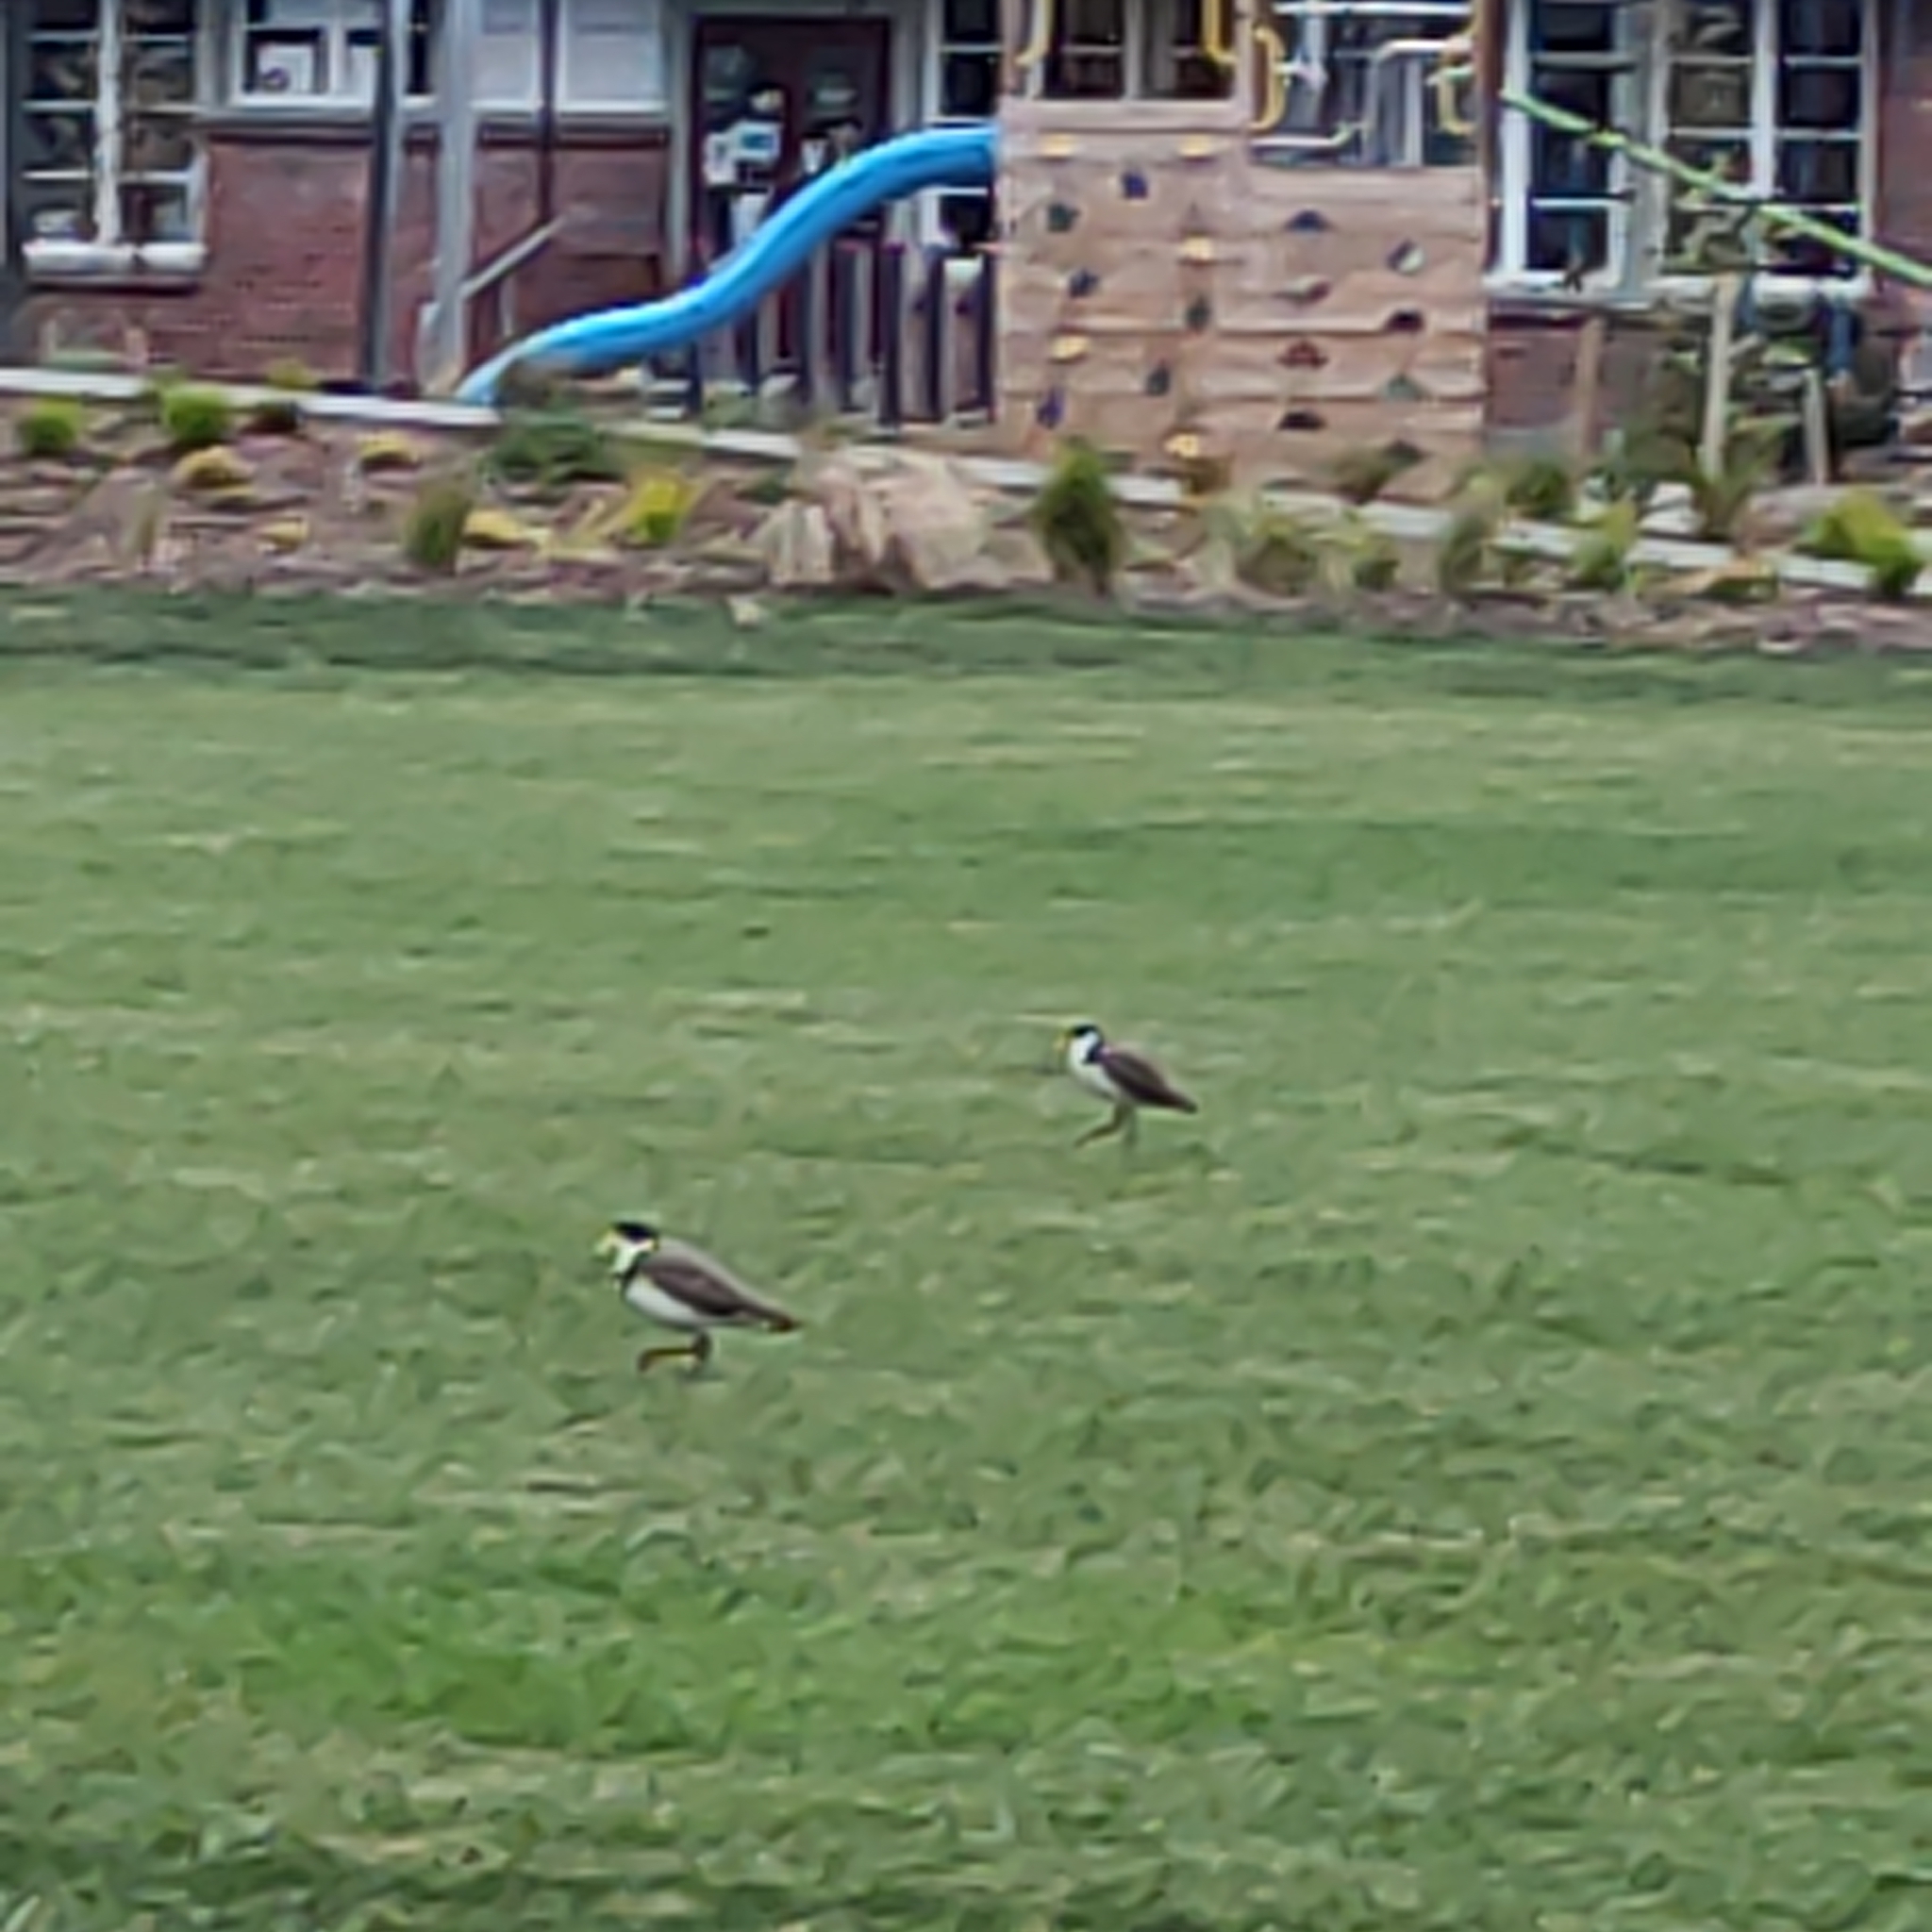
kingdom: Animalia
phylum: Chordata
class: Aves
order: Charadriiformes
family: Charadriidae
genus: Vanellus
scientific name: Vanellus miles
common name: Masked lapwing
